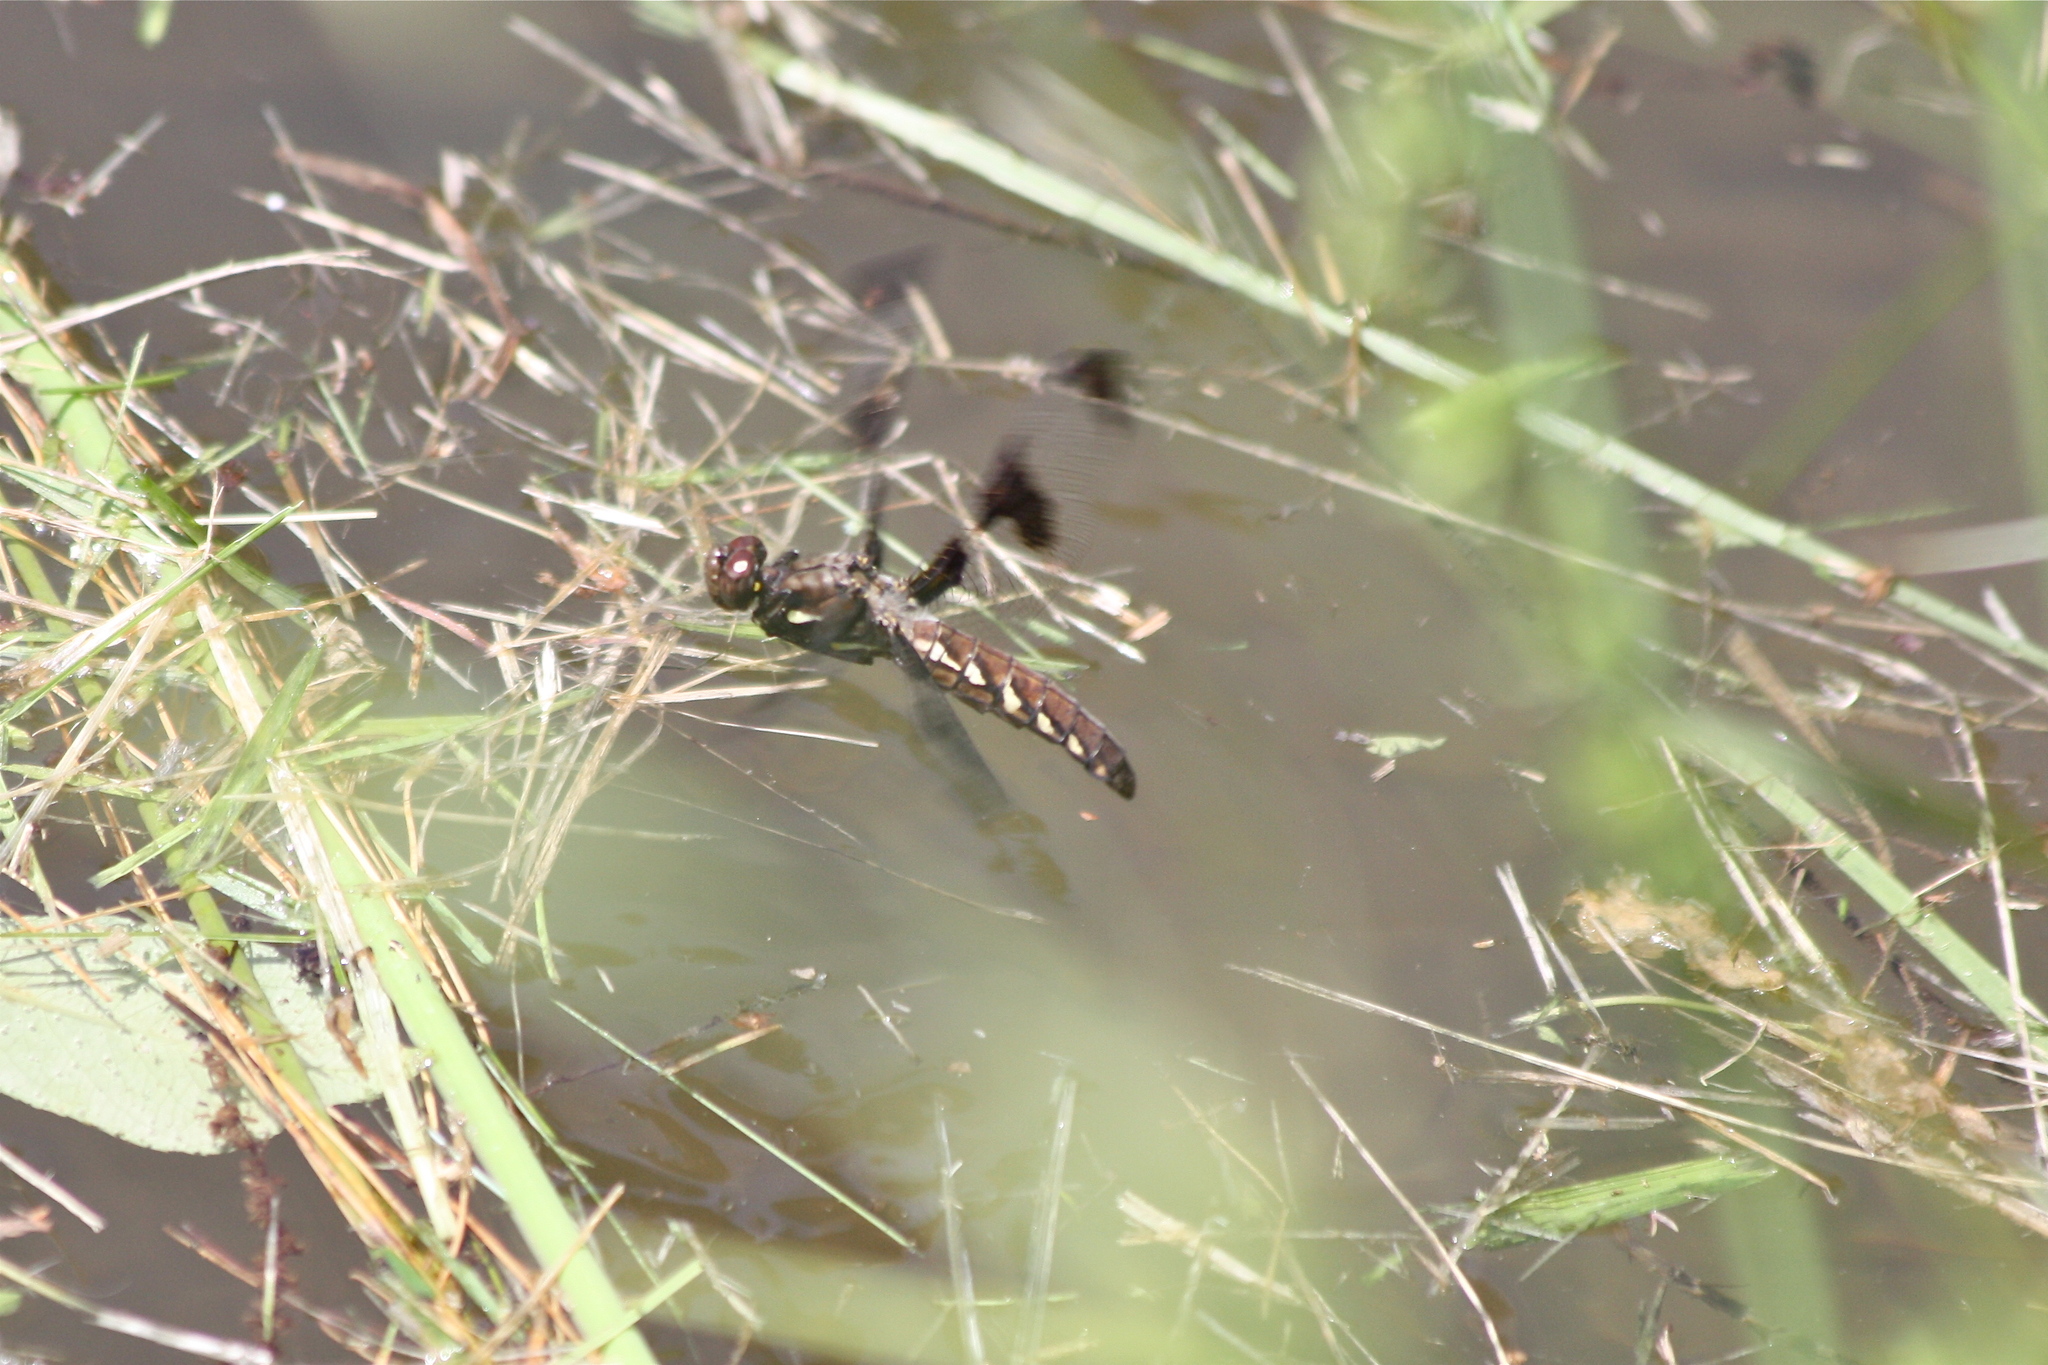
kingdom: Animalia
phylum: Arthropoda
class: Insecta
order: Odonata
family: Libellulidae
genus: Plathemis
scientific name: Plathemis lydia
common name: Common whitetail
